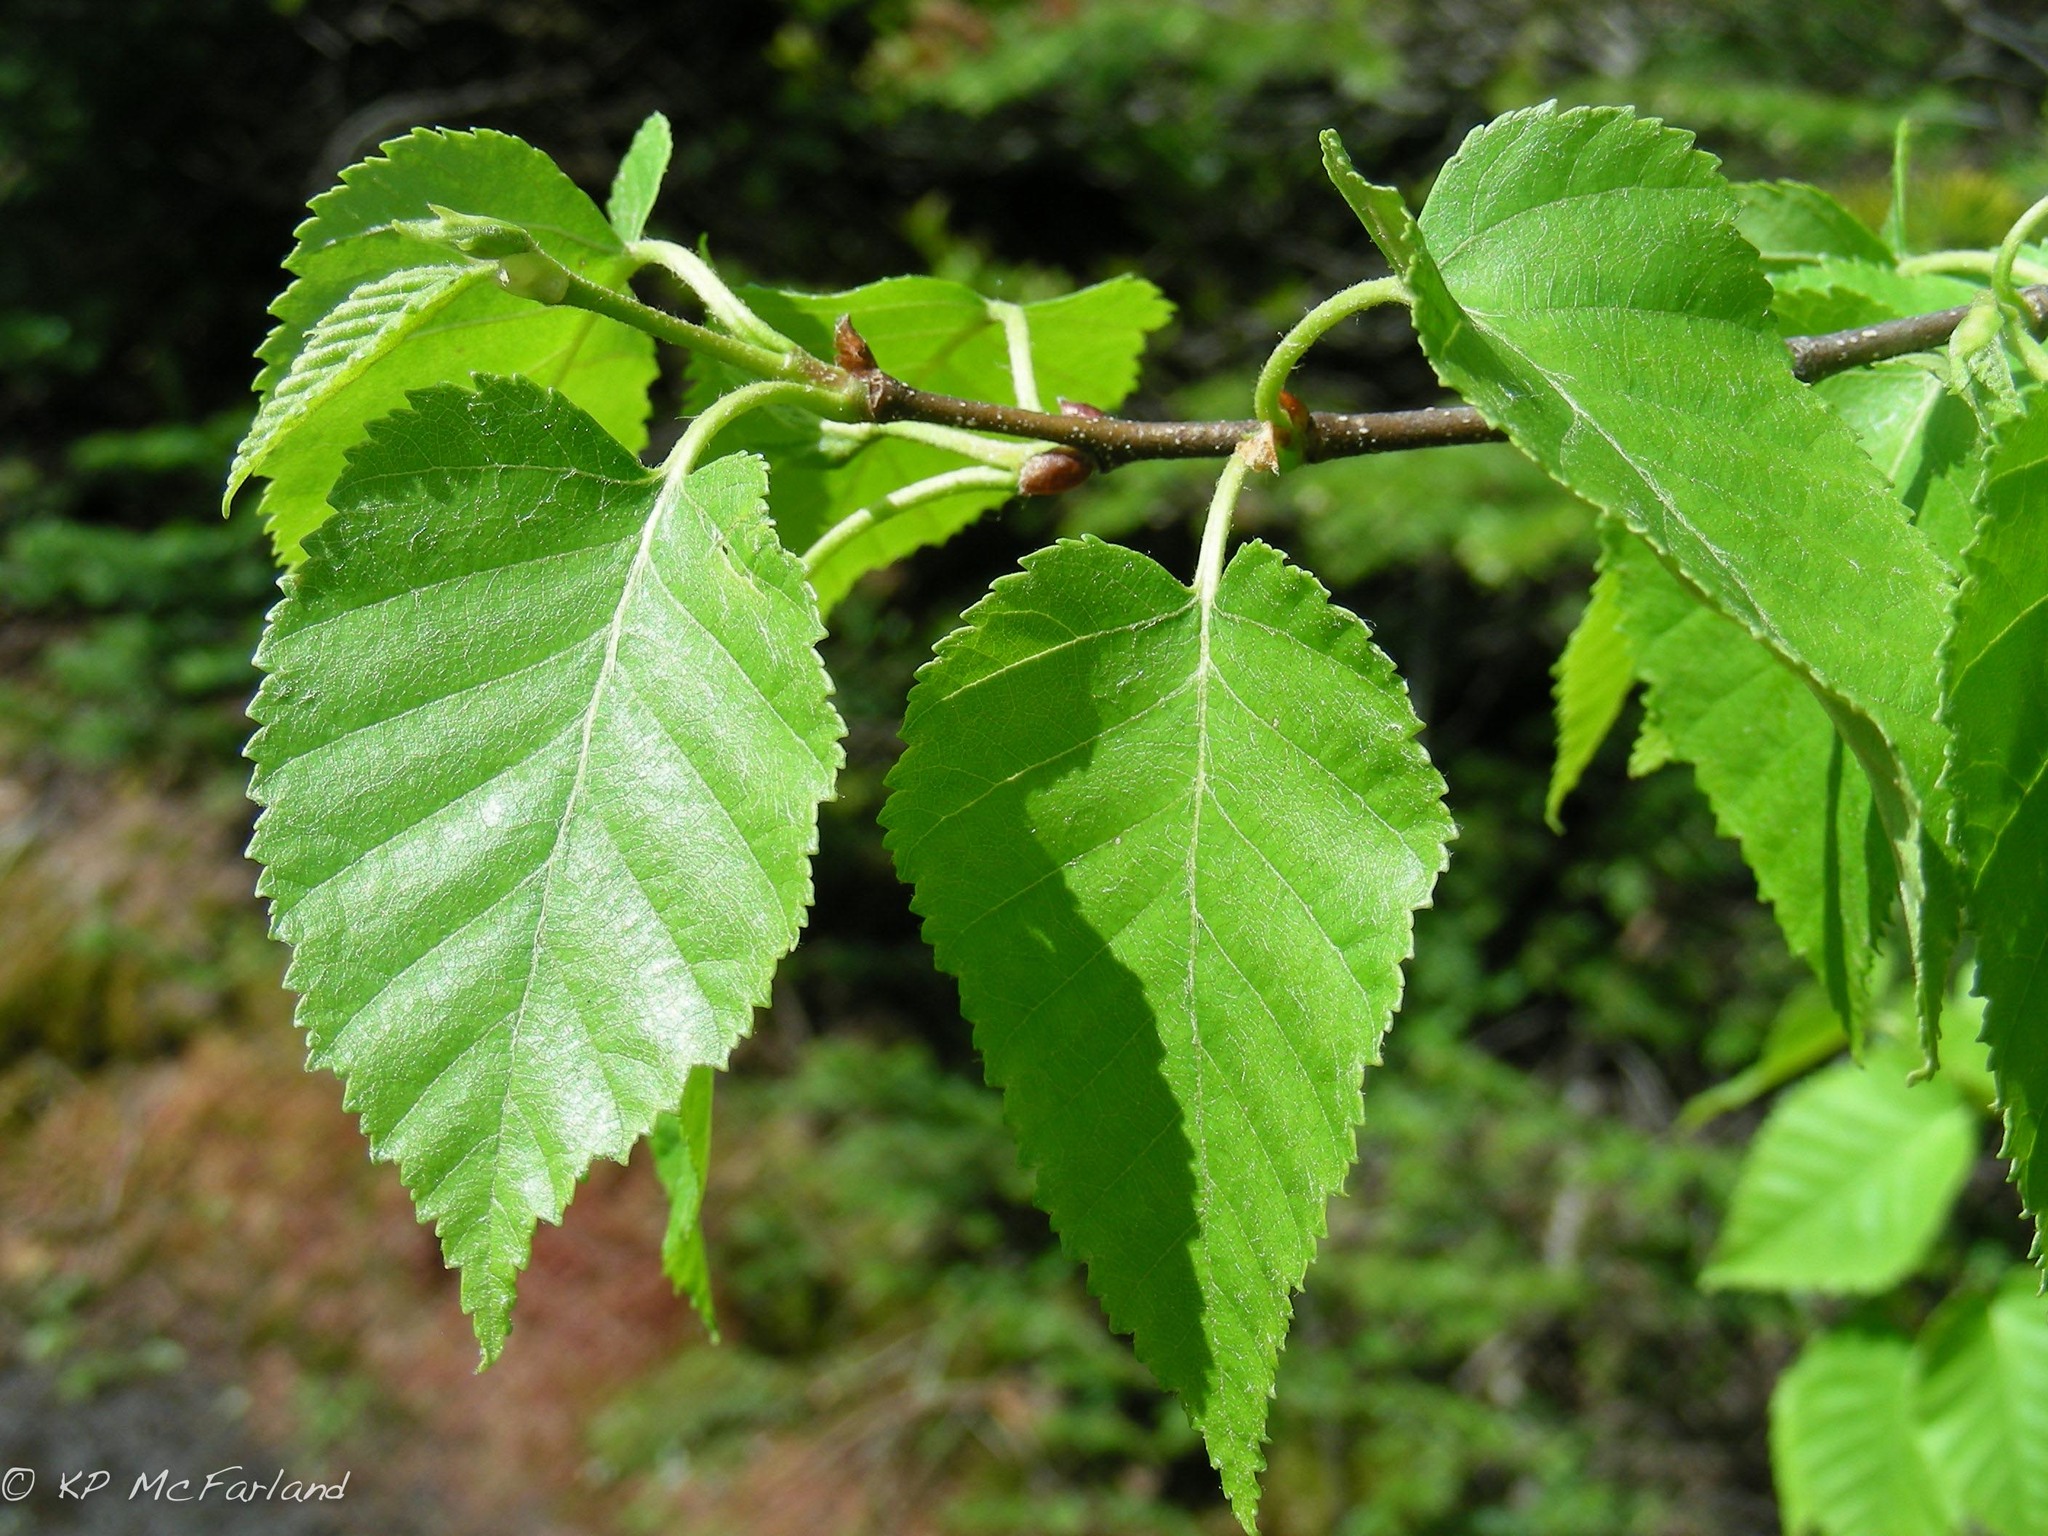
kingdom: Plantae
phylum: Tracheophyta
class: Magnoliopsida
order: Fagales
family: Betulaceae
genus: Betula
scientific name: Betula cordifolia
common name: Mountain white birch
